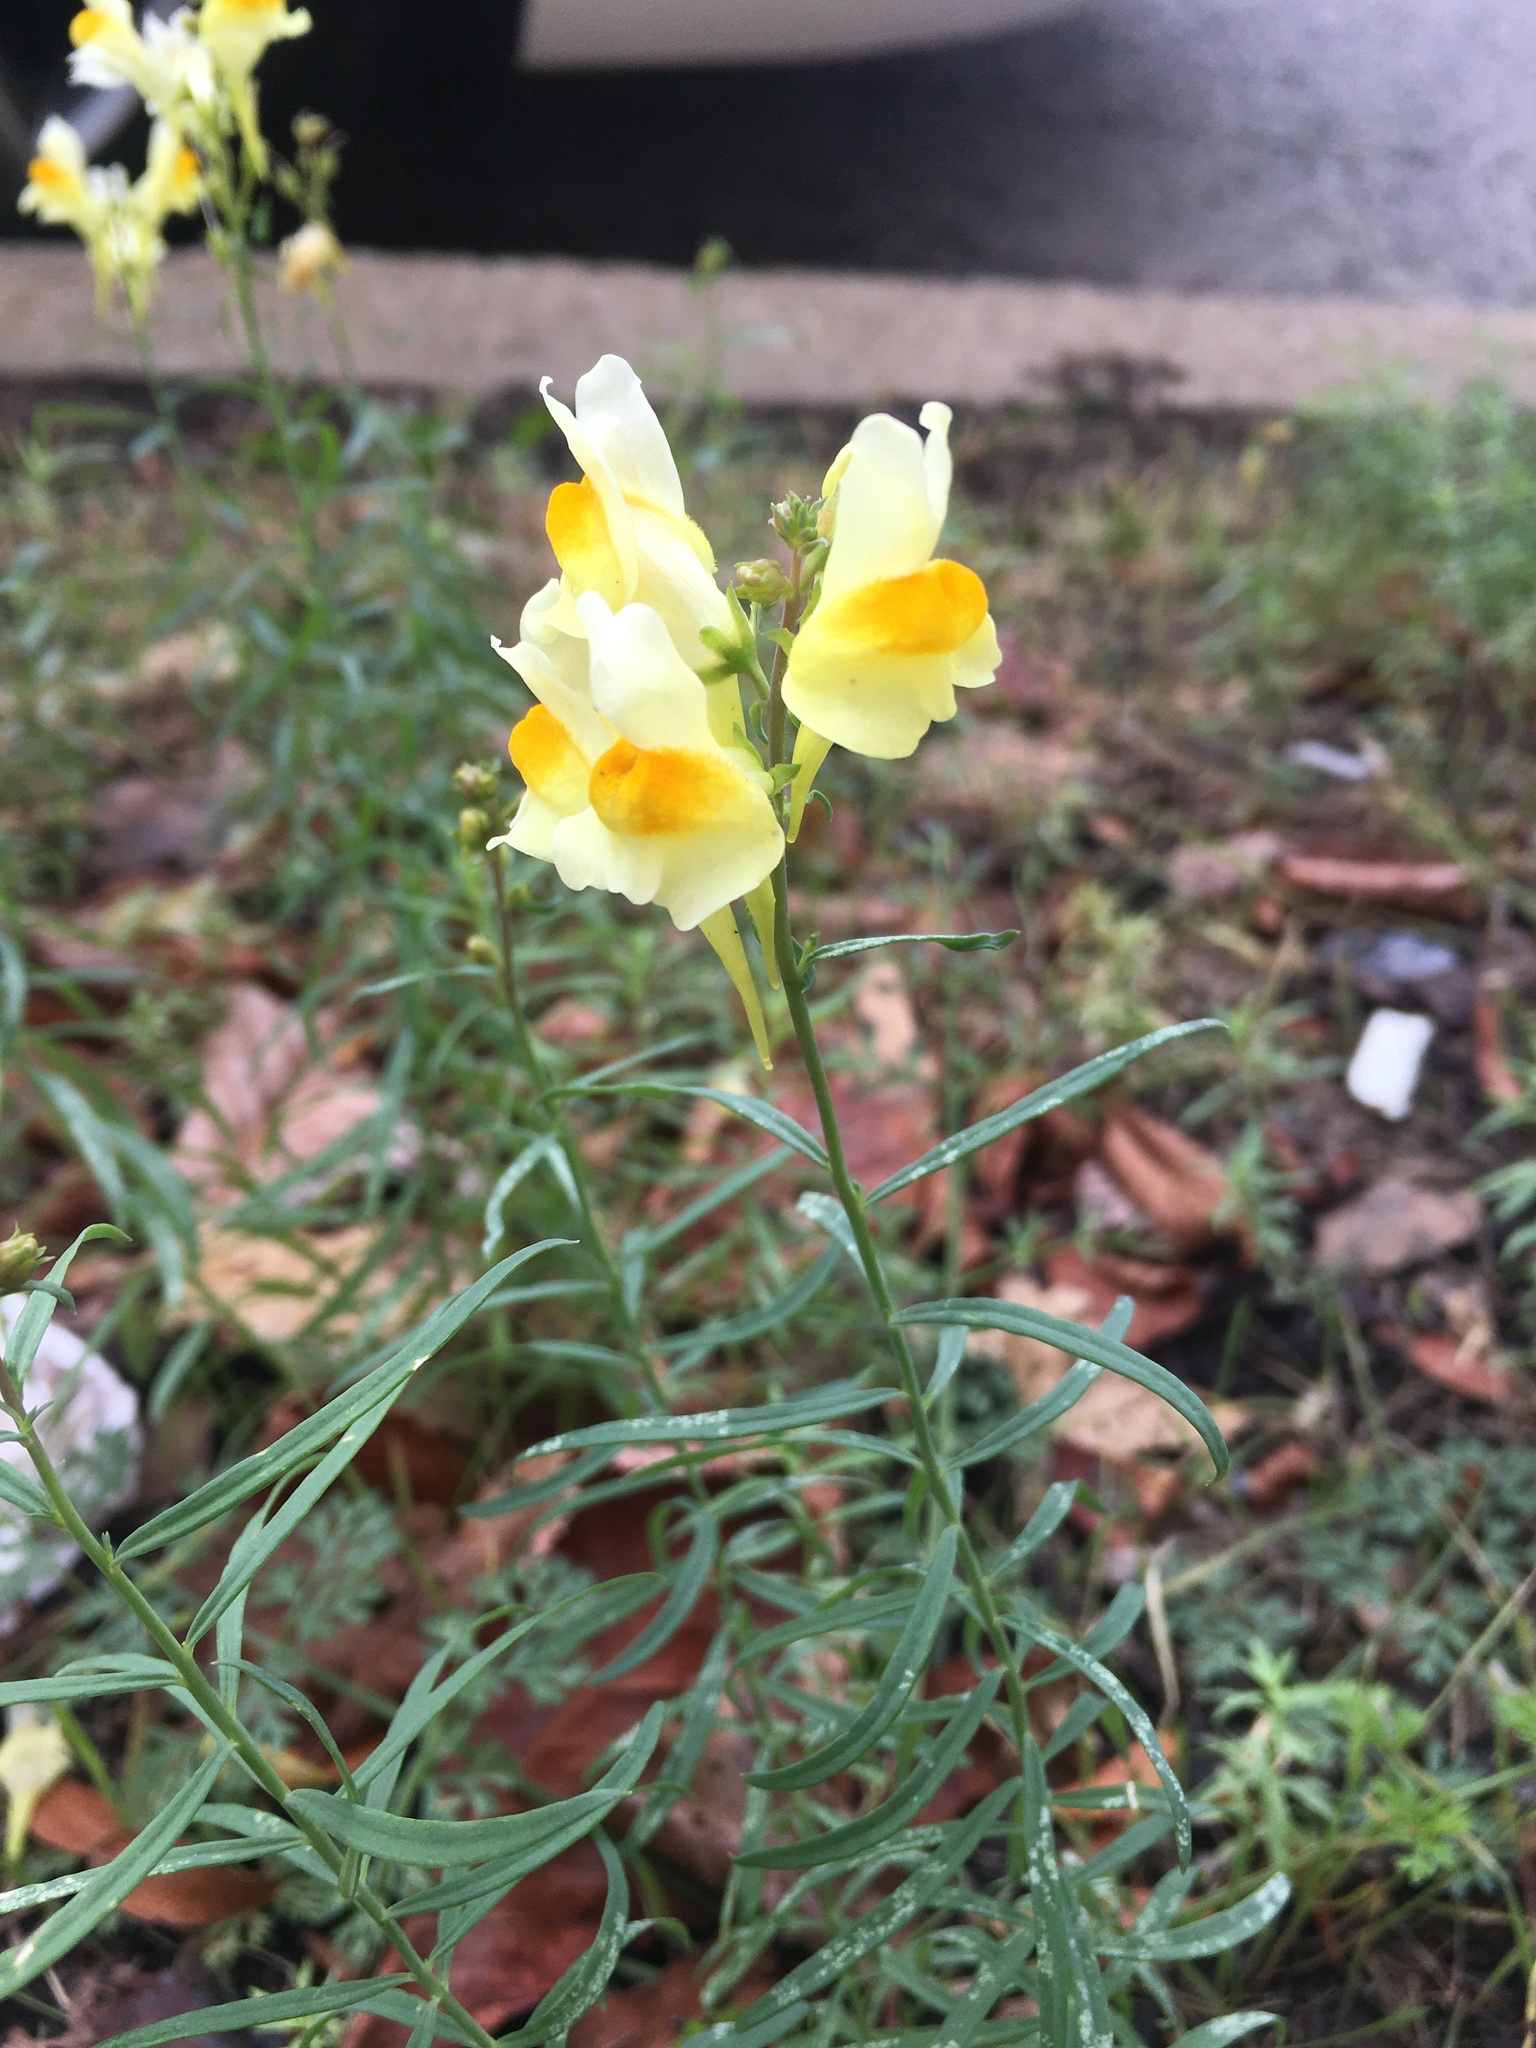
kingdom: Plantae
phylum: Tracheophyta
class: Magnoliopsida
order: Lamiales
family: Plantaginaceae
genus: Linaria
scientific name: Linaria vulgaris
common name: Butter and eggs
